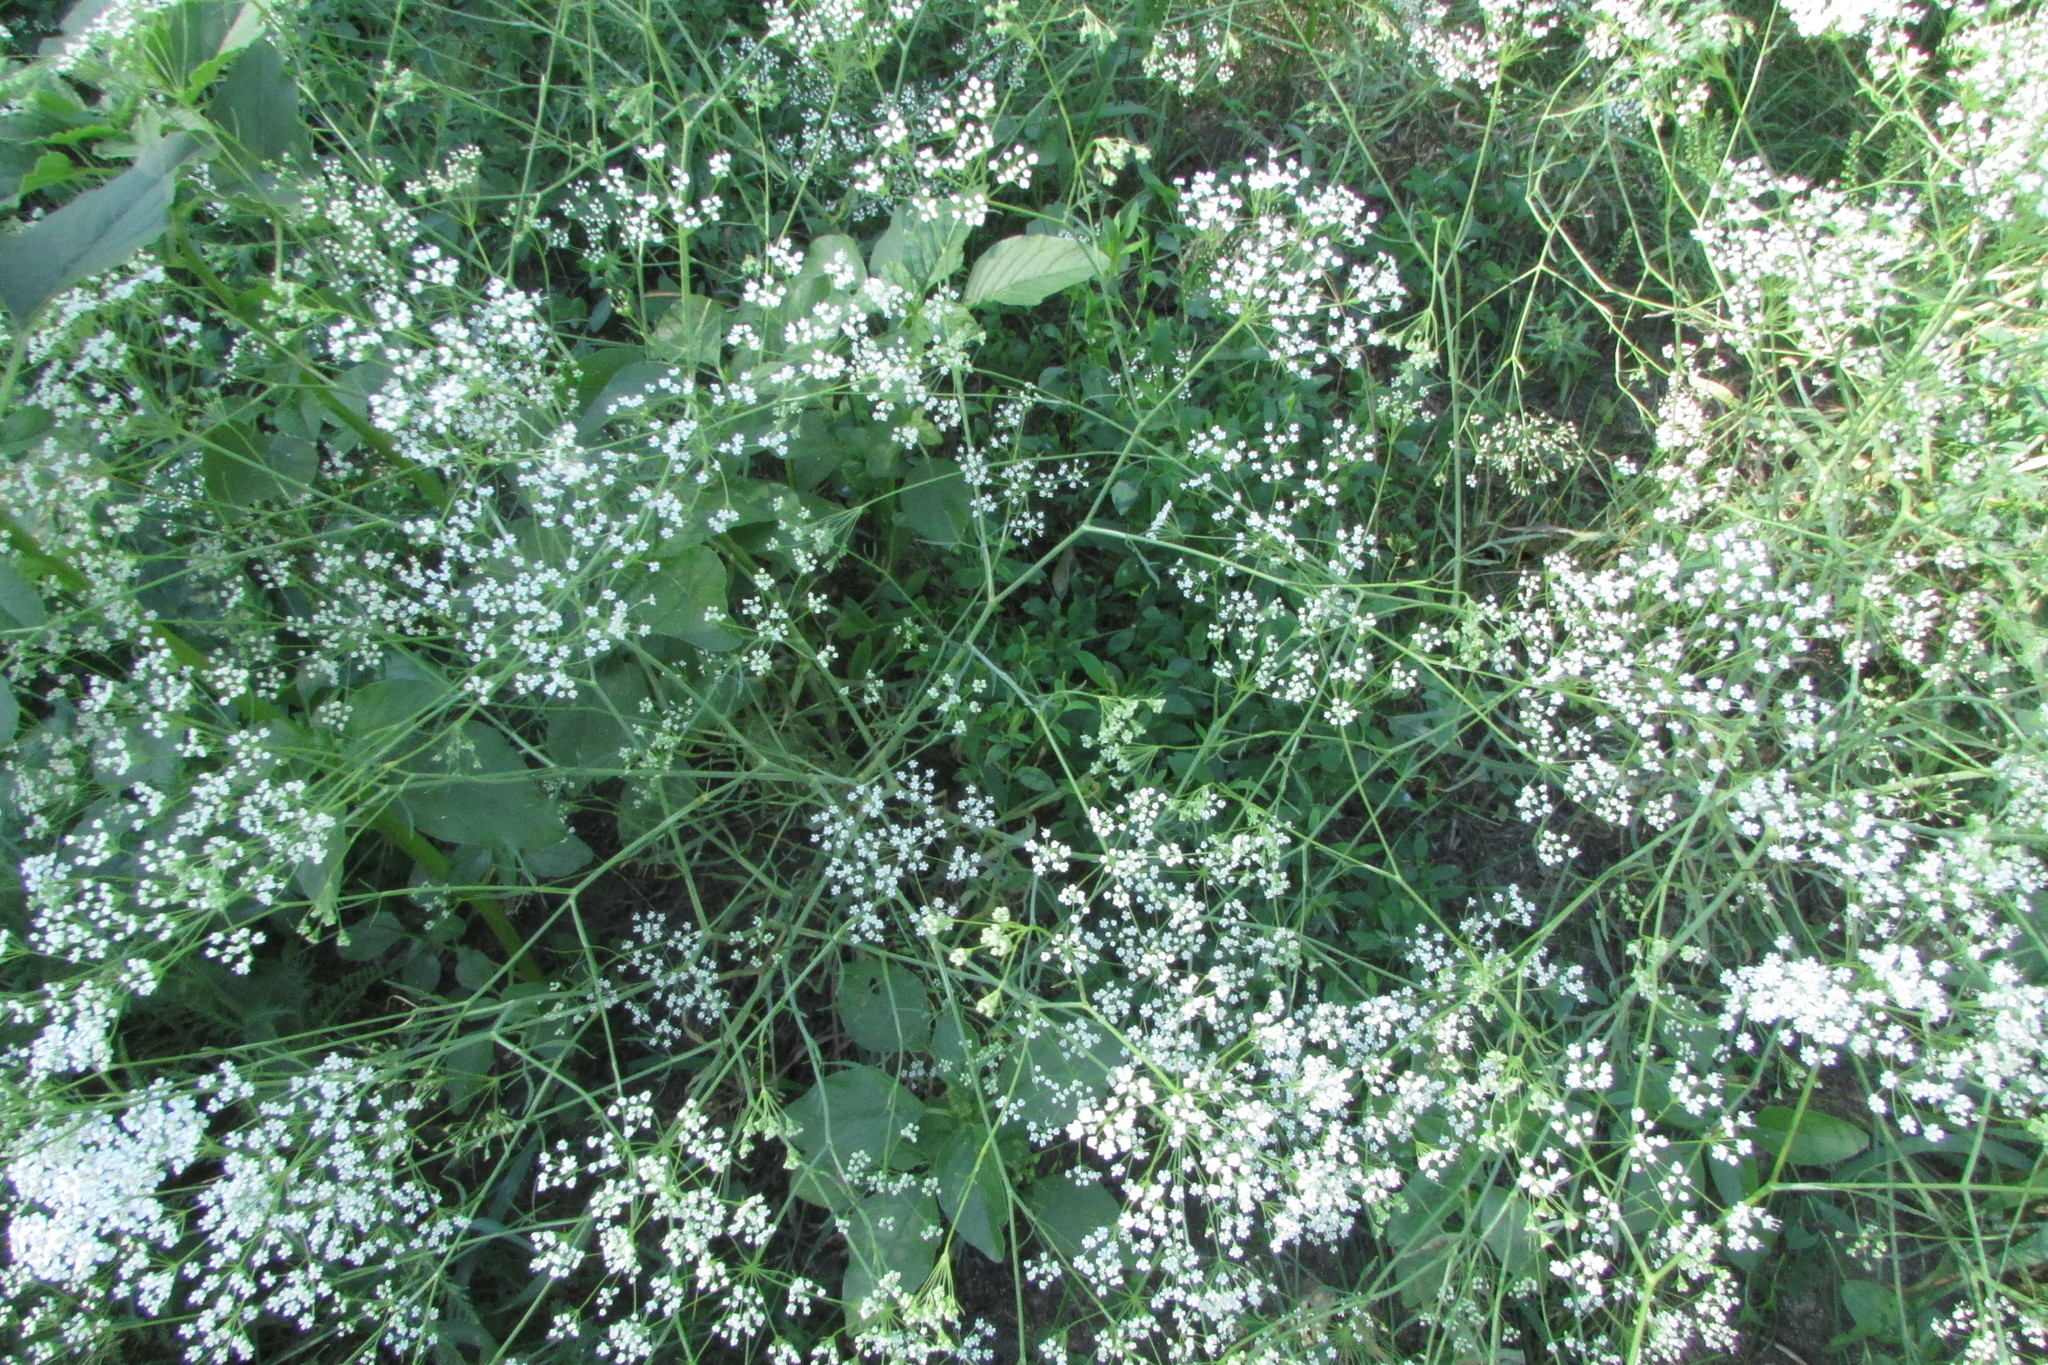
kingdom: Plantae
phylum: Tracheophyta
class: Magnoliopsida
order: Apiales
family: Apiaceae
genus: Falcaria
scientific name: Falcaria vulgaris
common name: Longleaf
